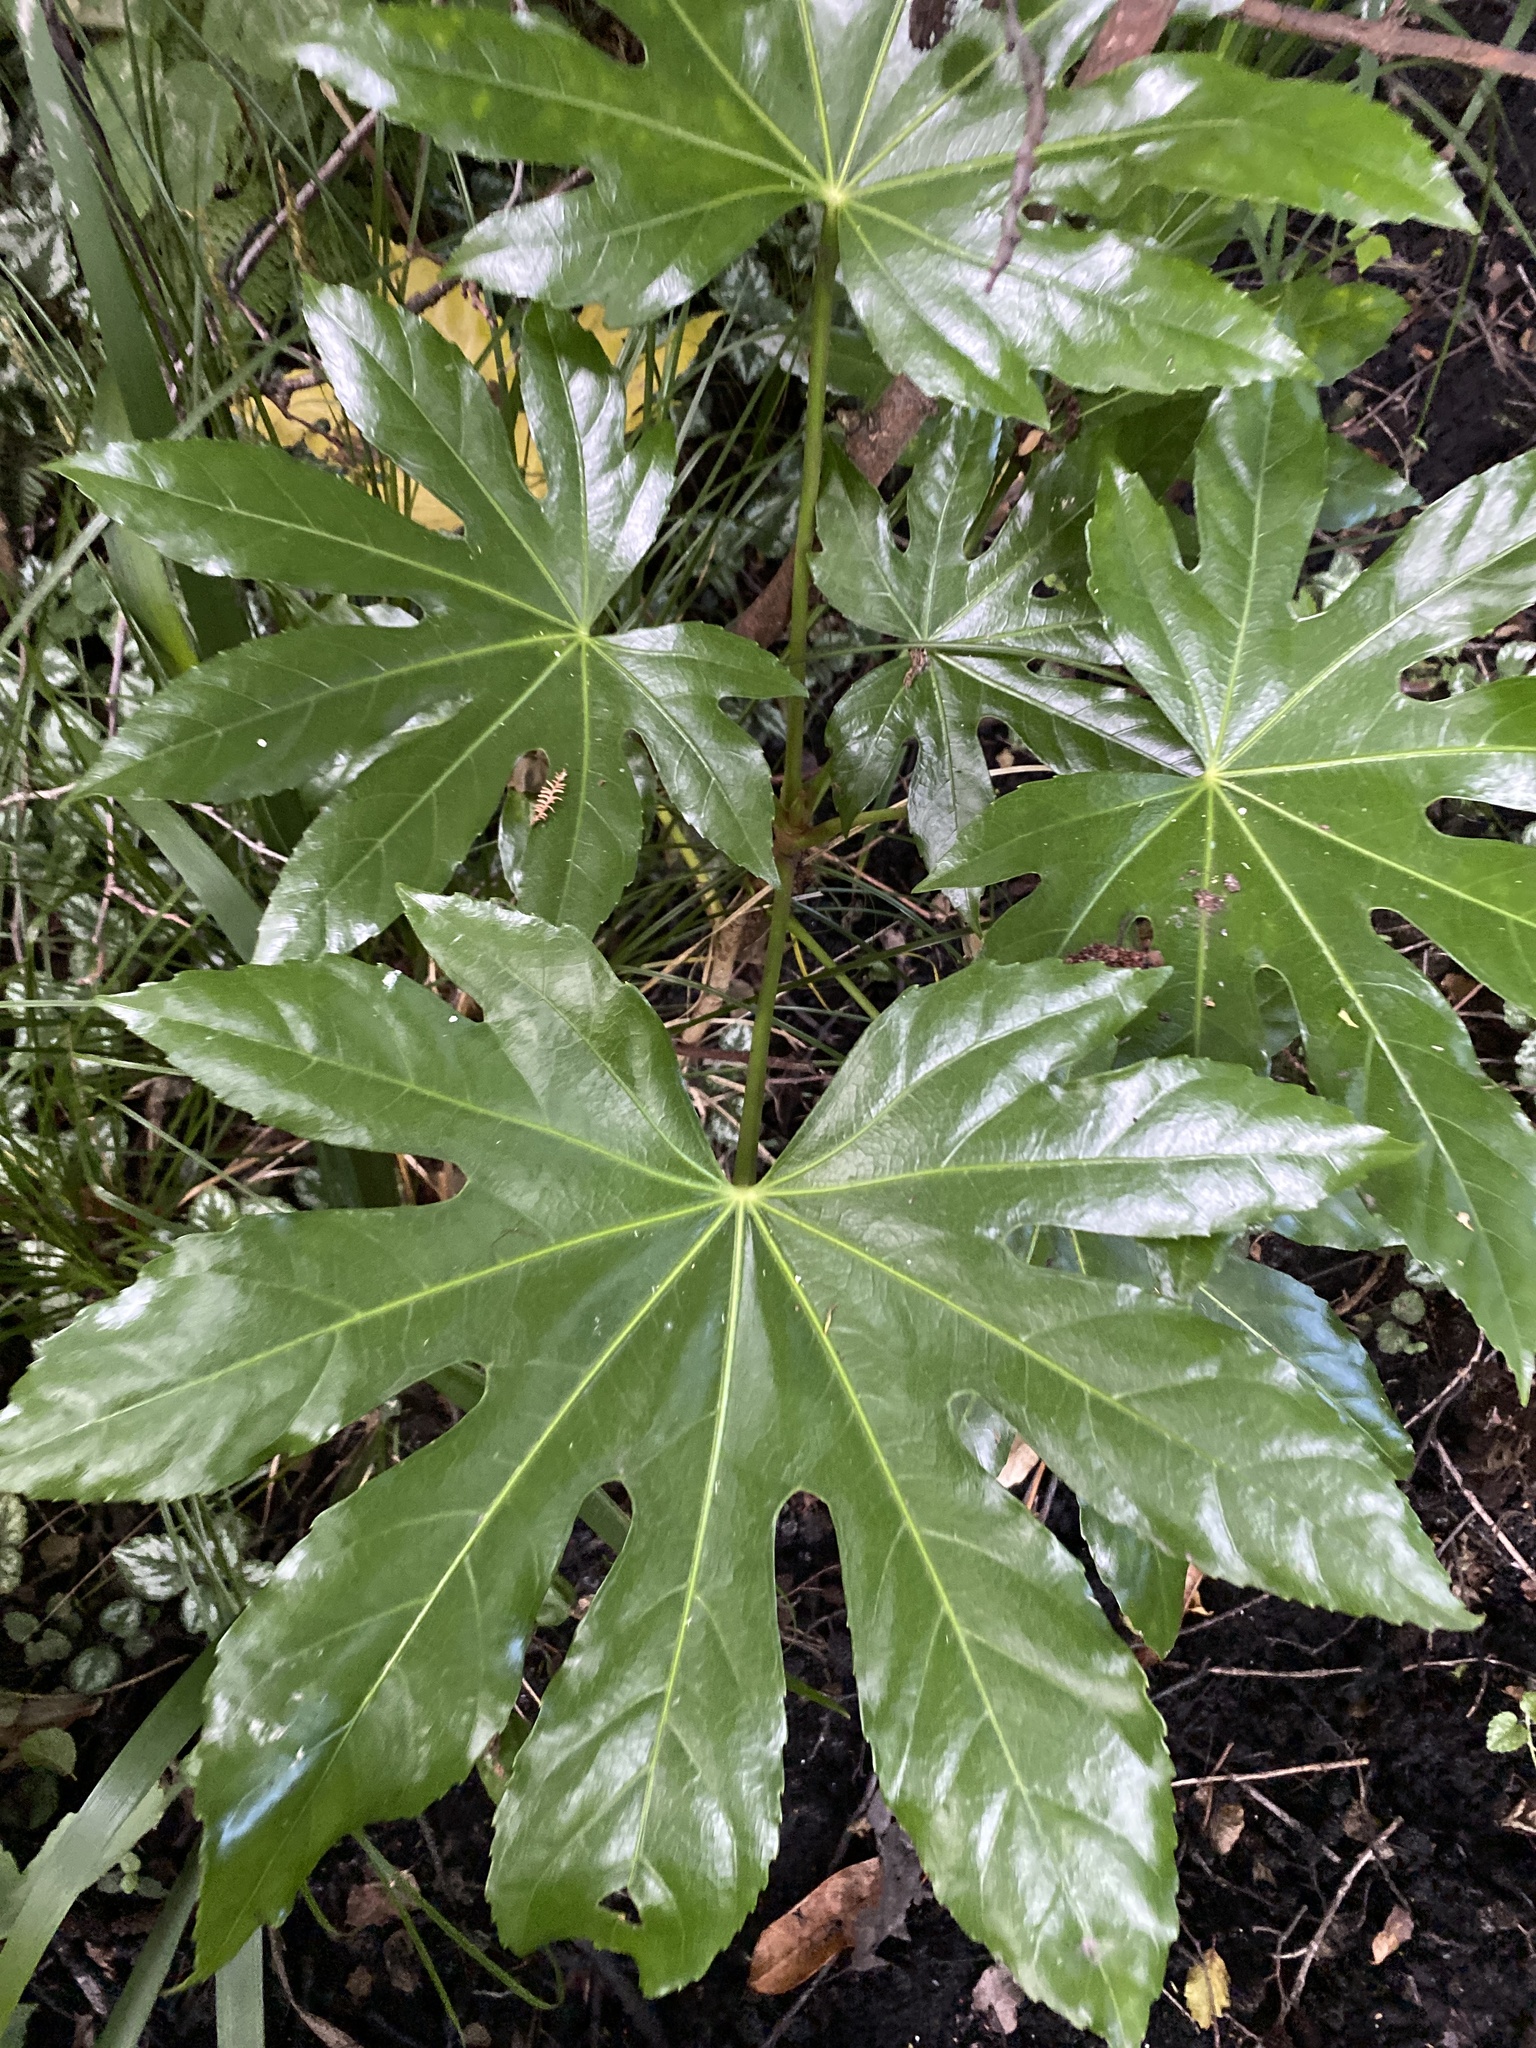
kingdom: Plantae
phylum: Tracheophyta
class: Magnoliopsida
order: Apiales
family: Araliaceae
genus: Fatsia
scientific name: Fatsia japonica
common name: Fatsia
